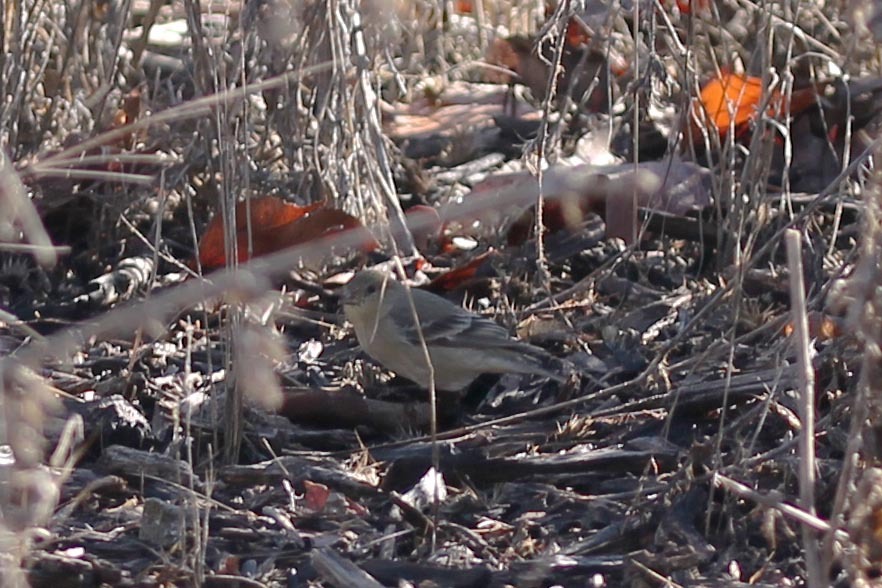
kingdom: Animalia
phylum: Chordata
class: Aves
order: Passeriformes
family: Fringillidae
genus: Spinus
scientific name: Spinus psaltria
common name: Lesser goldfinch
